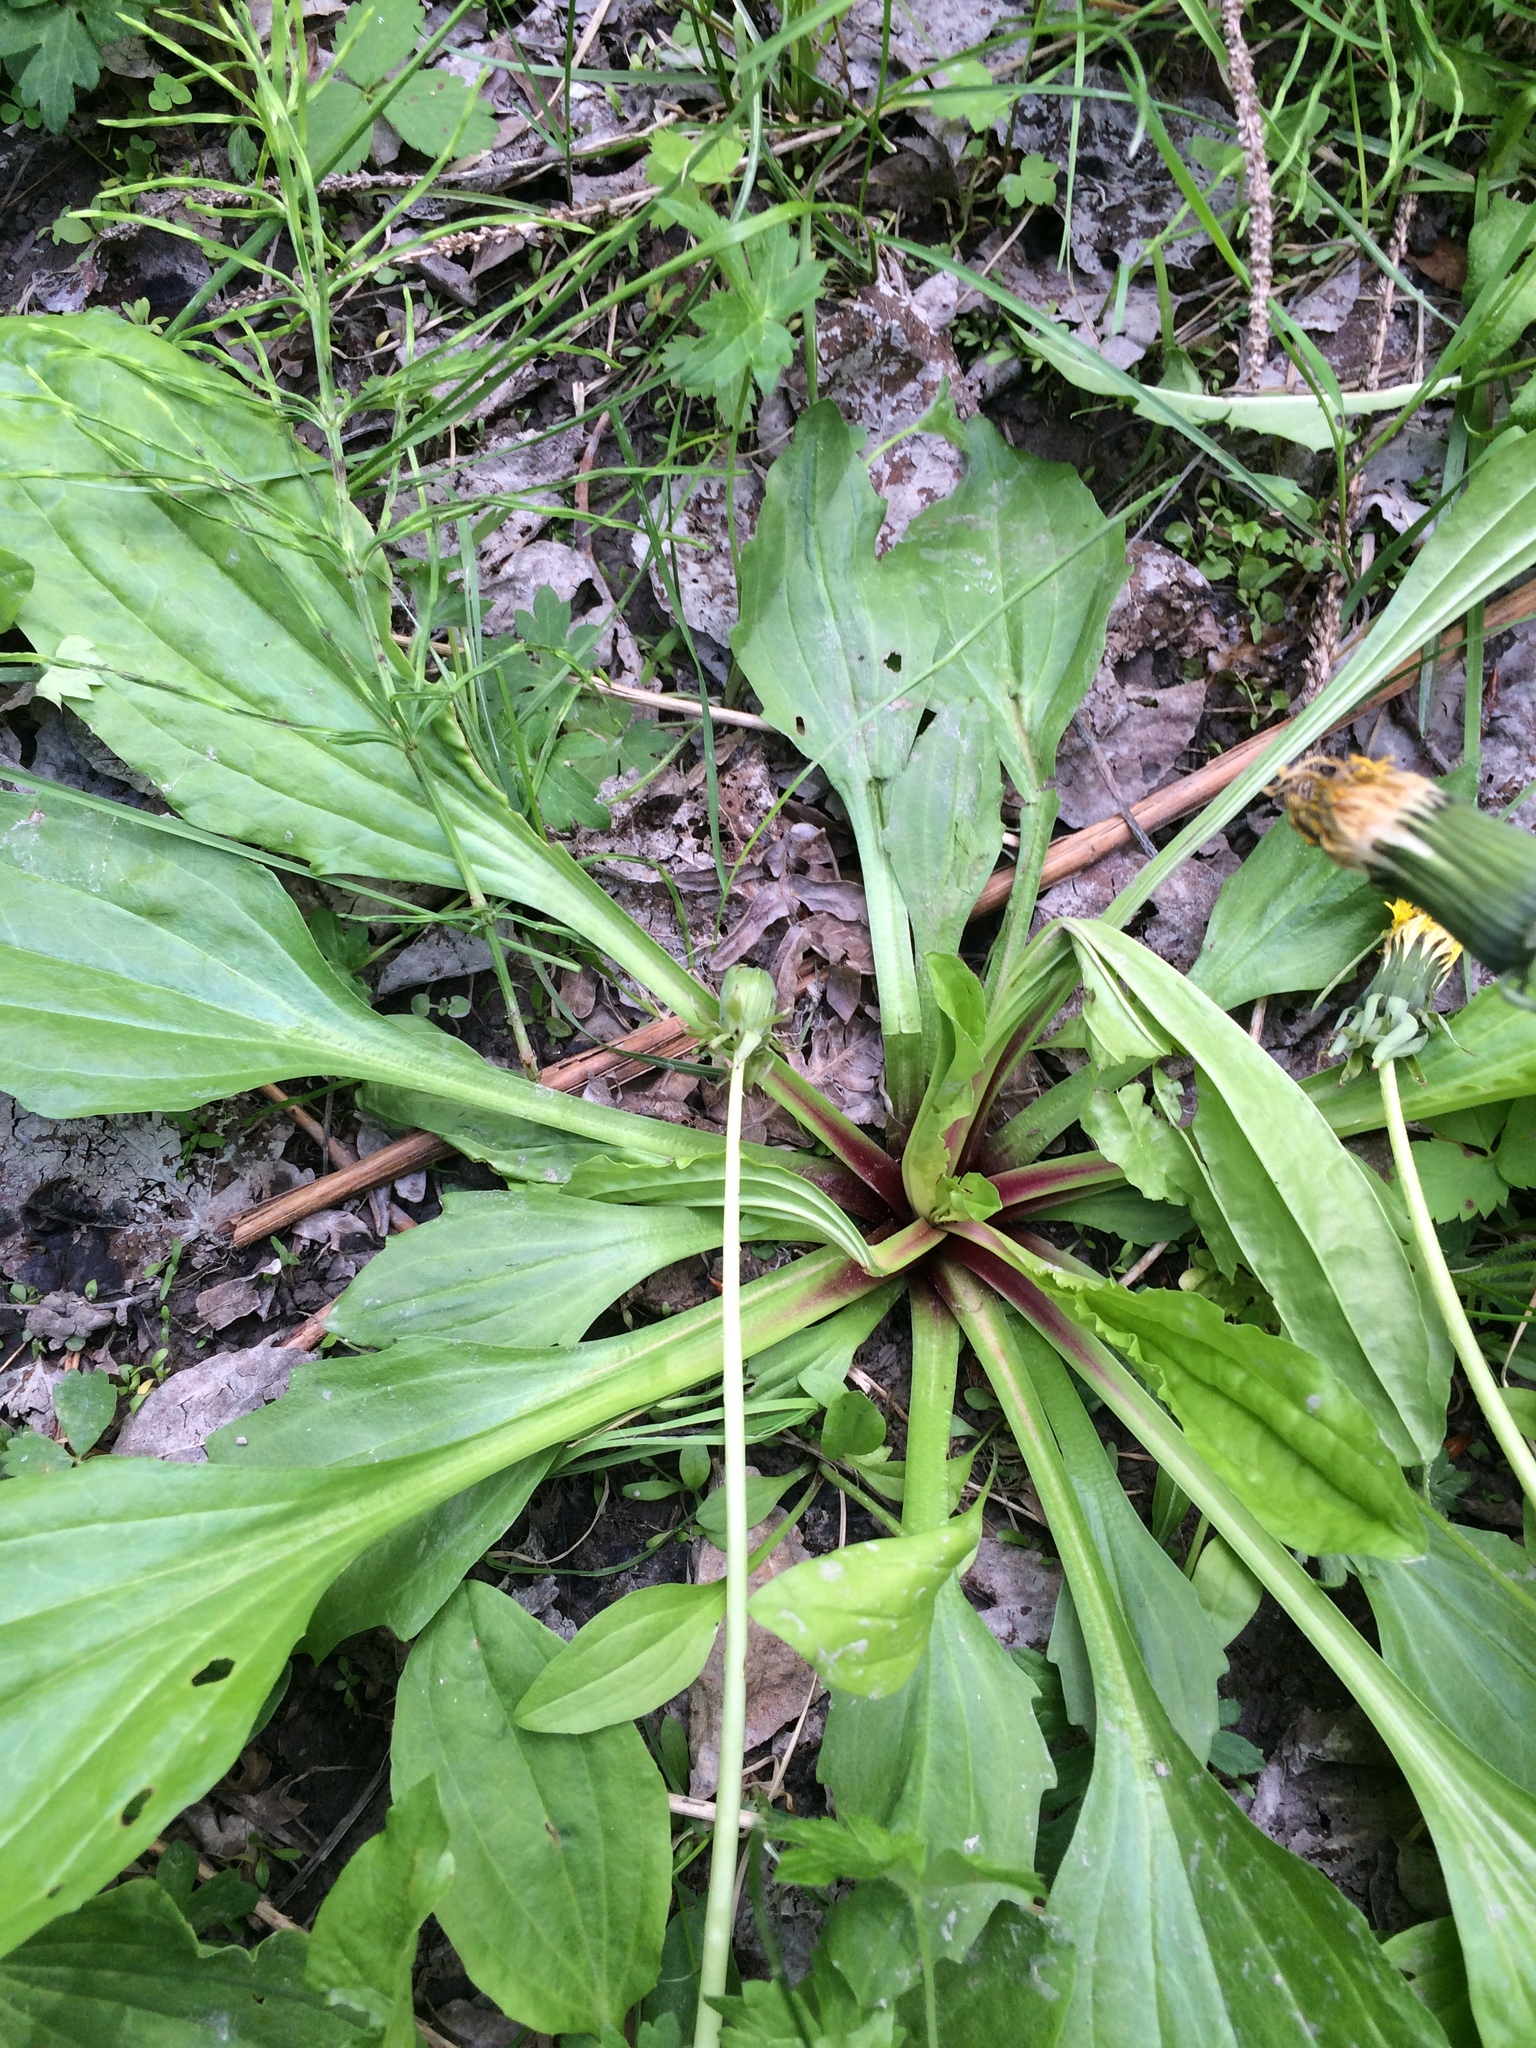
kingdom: Plantae
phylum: Tracheophyta
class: Magnoliopsida
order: Lamiales
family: Plantaginaceae
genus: Plantago
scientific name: Plantago rugelii
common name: American plantain
